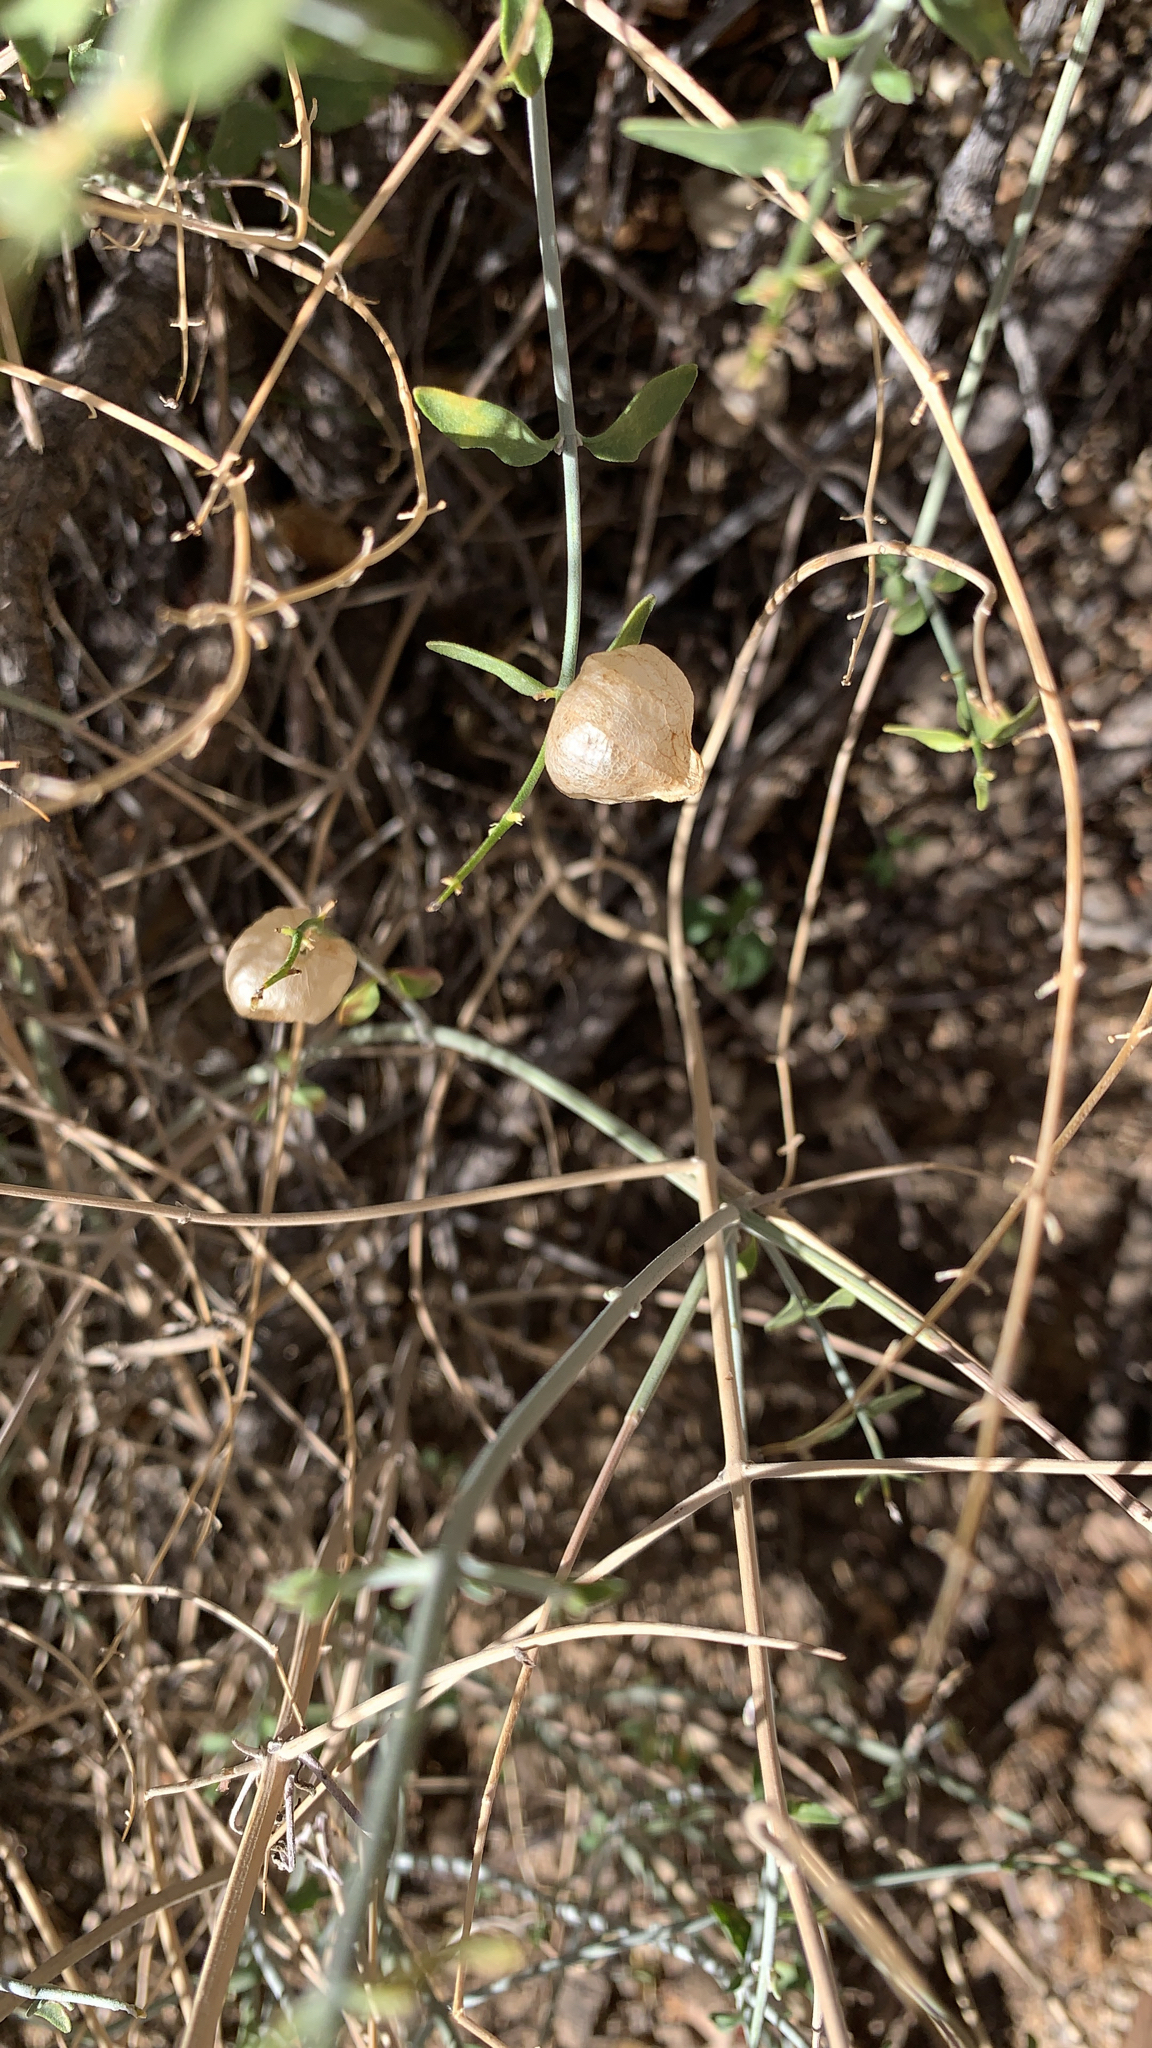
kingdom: Plantae
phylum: Tracheophyta
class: Magnoliopsida
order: Lamiales
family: Lamiaceae
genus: Scutellaria
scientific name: Scutellaria mexicana
